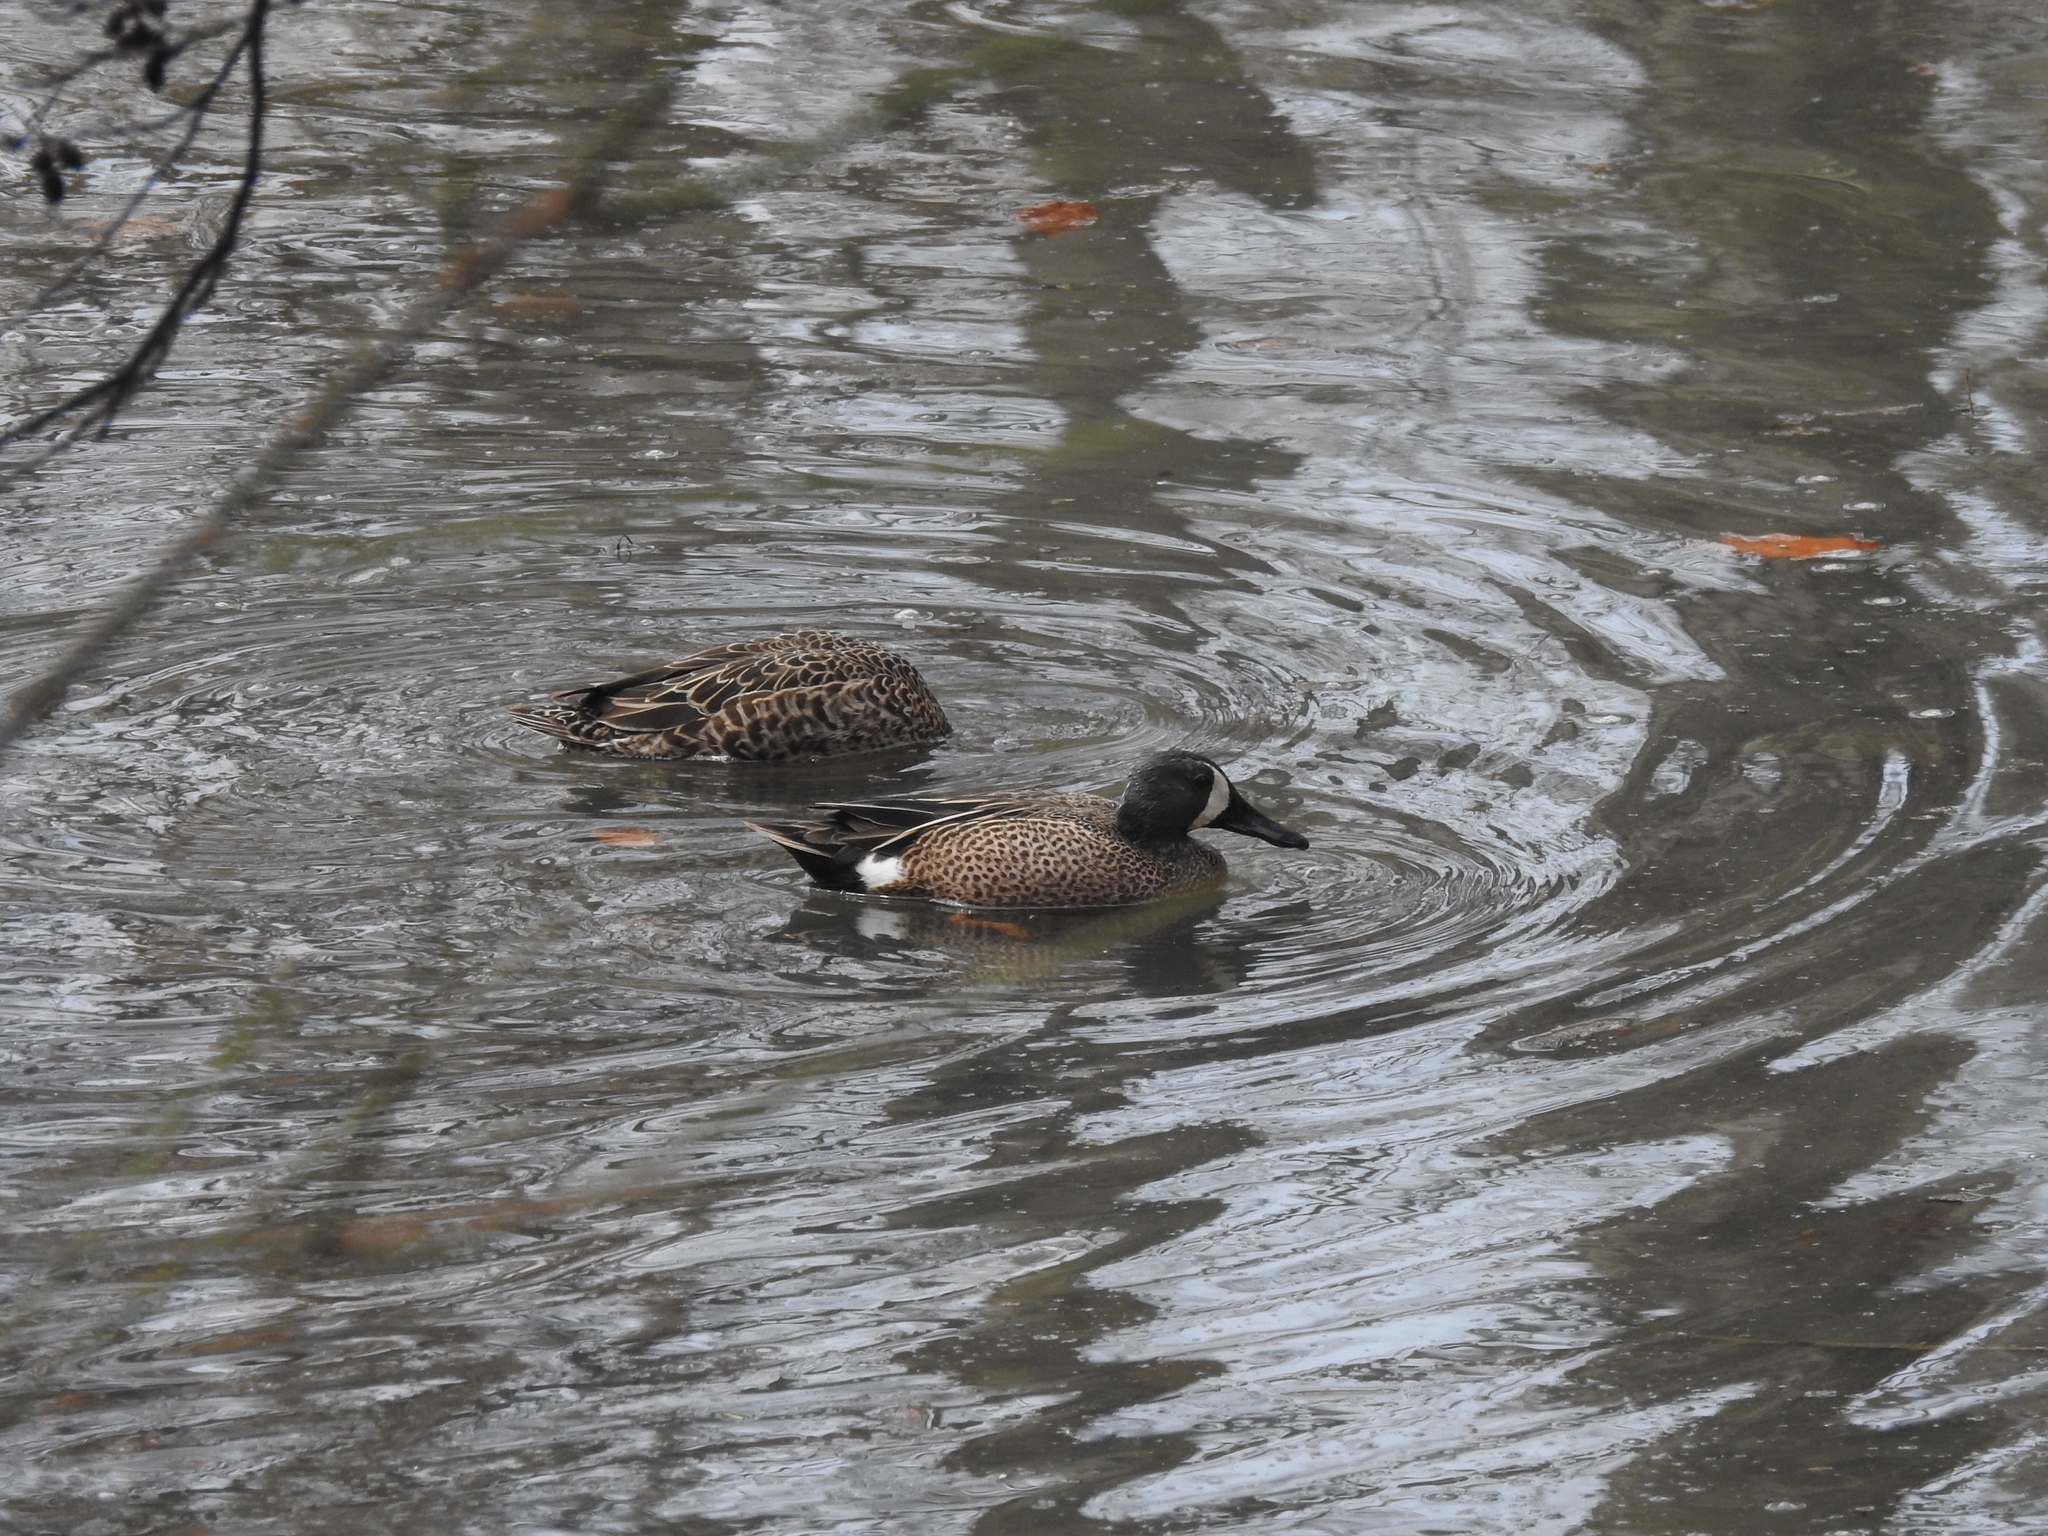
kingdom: Animalia
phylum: Chordata
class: Aves
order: Anseriformes
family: Anatidae
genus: Spatula
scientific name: Spatula discors
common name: Blue-winged teal
